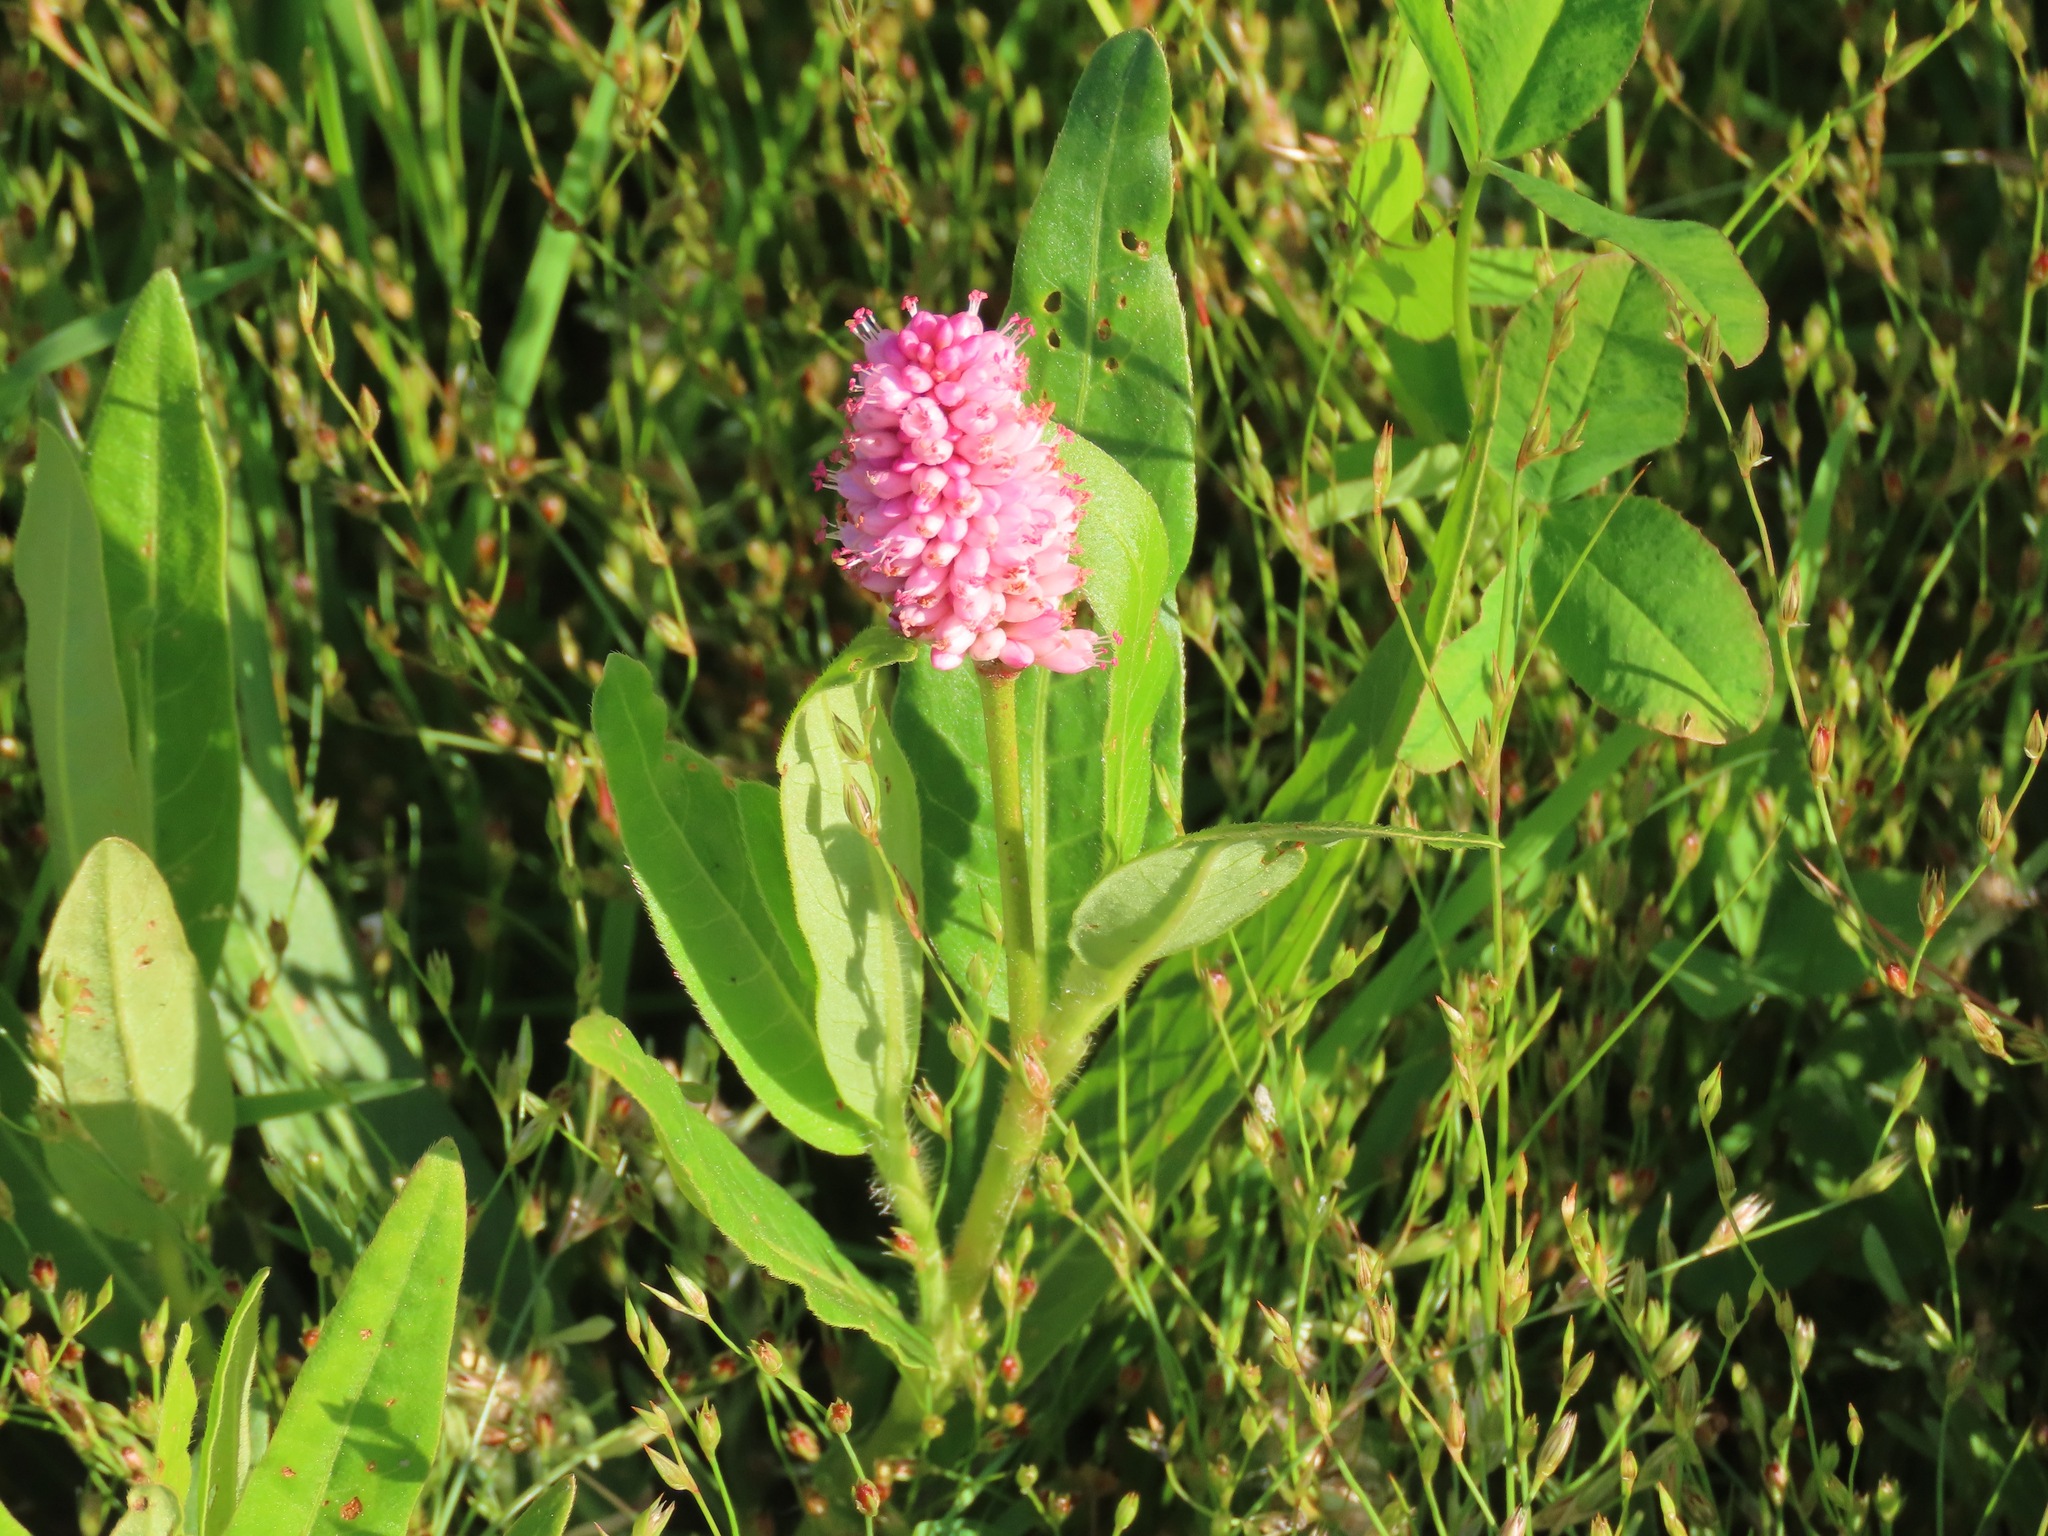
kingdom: Plantae
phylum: Tracheophyta
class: Magnoliopsida
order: Caryophyllales
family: Polygonaceae
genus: Persicaria
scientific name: Persicaria amphibia
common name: Amphibious bistort
